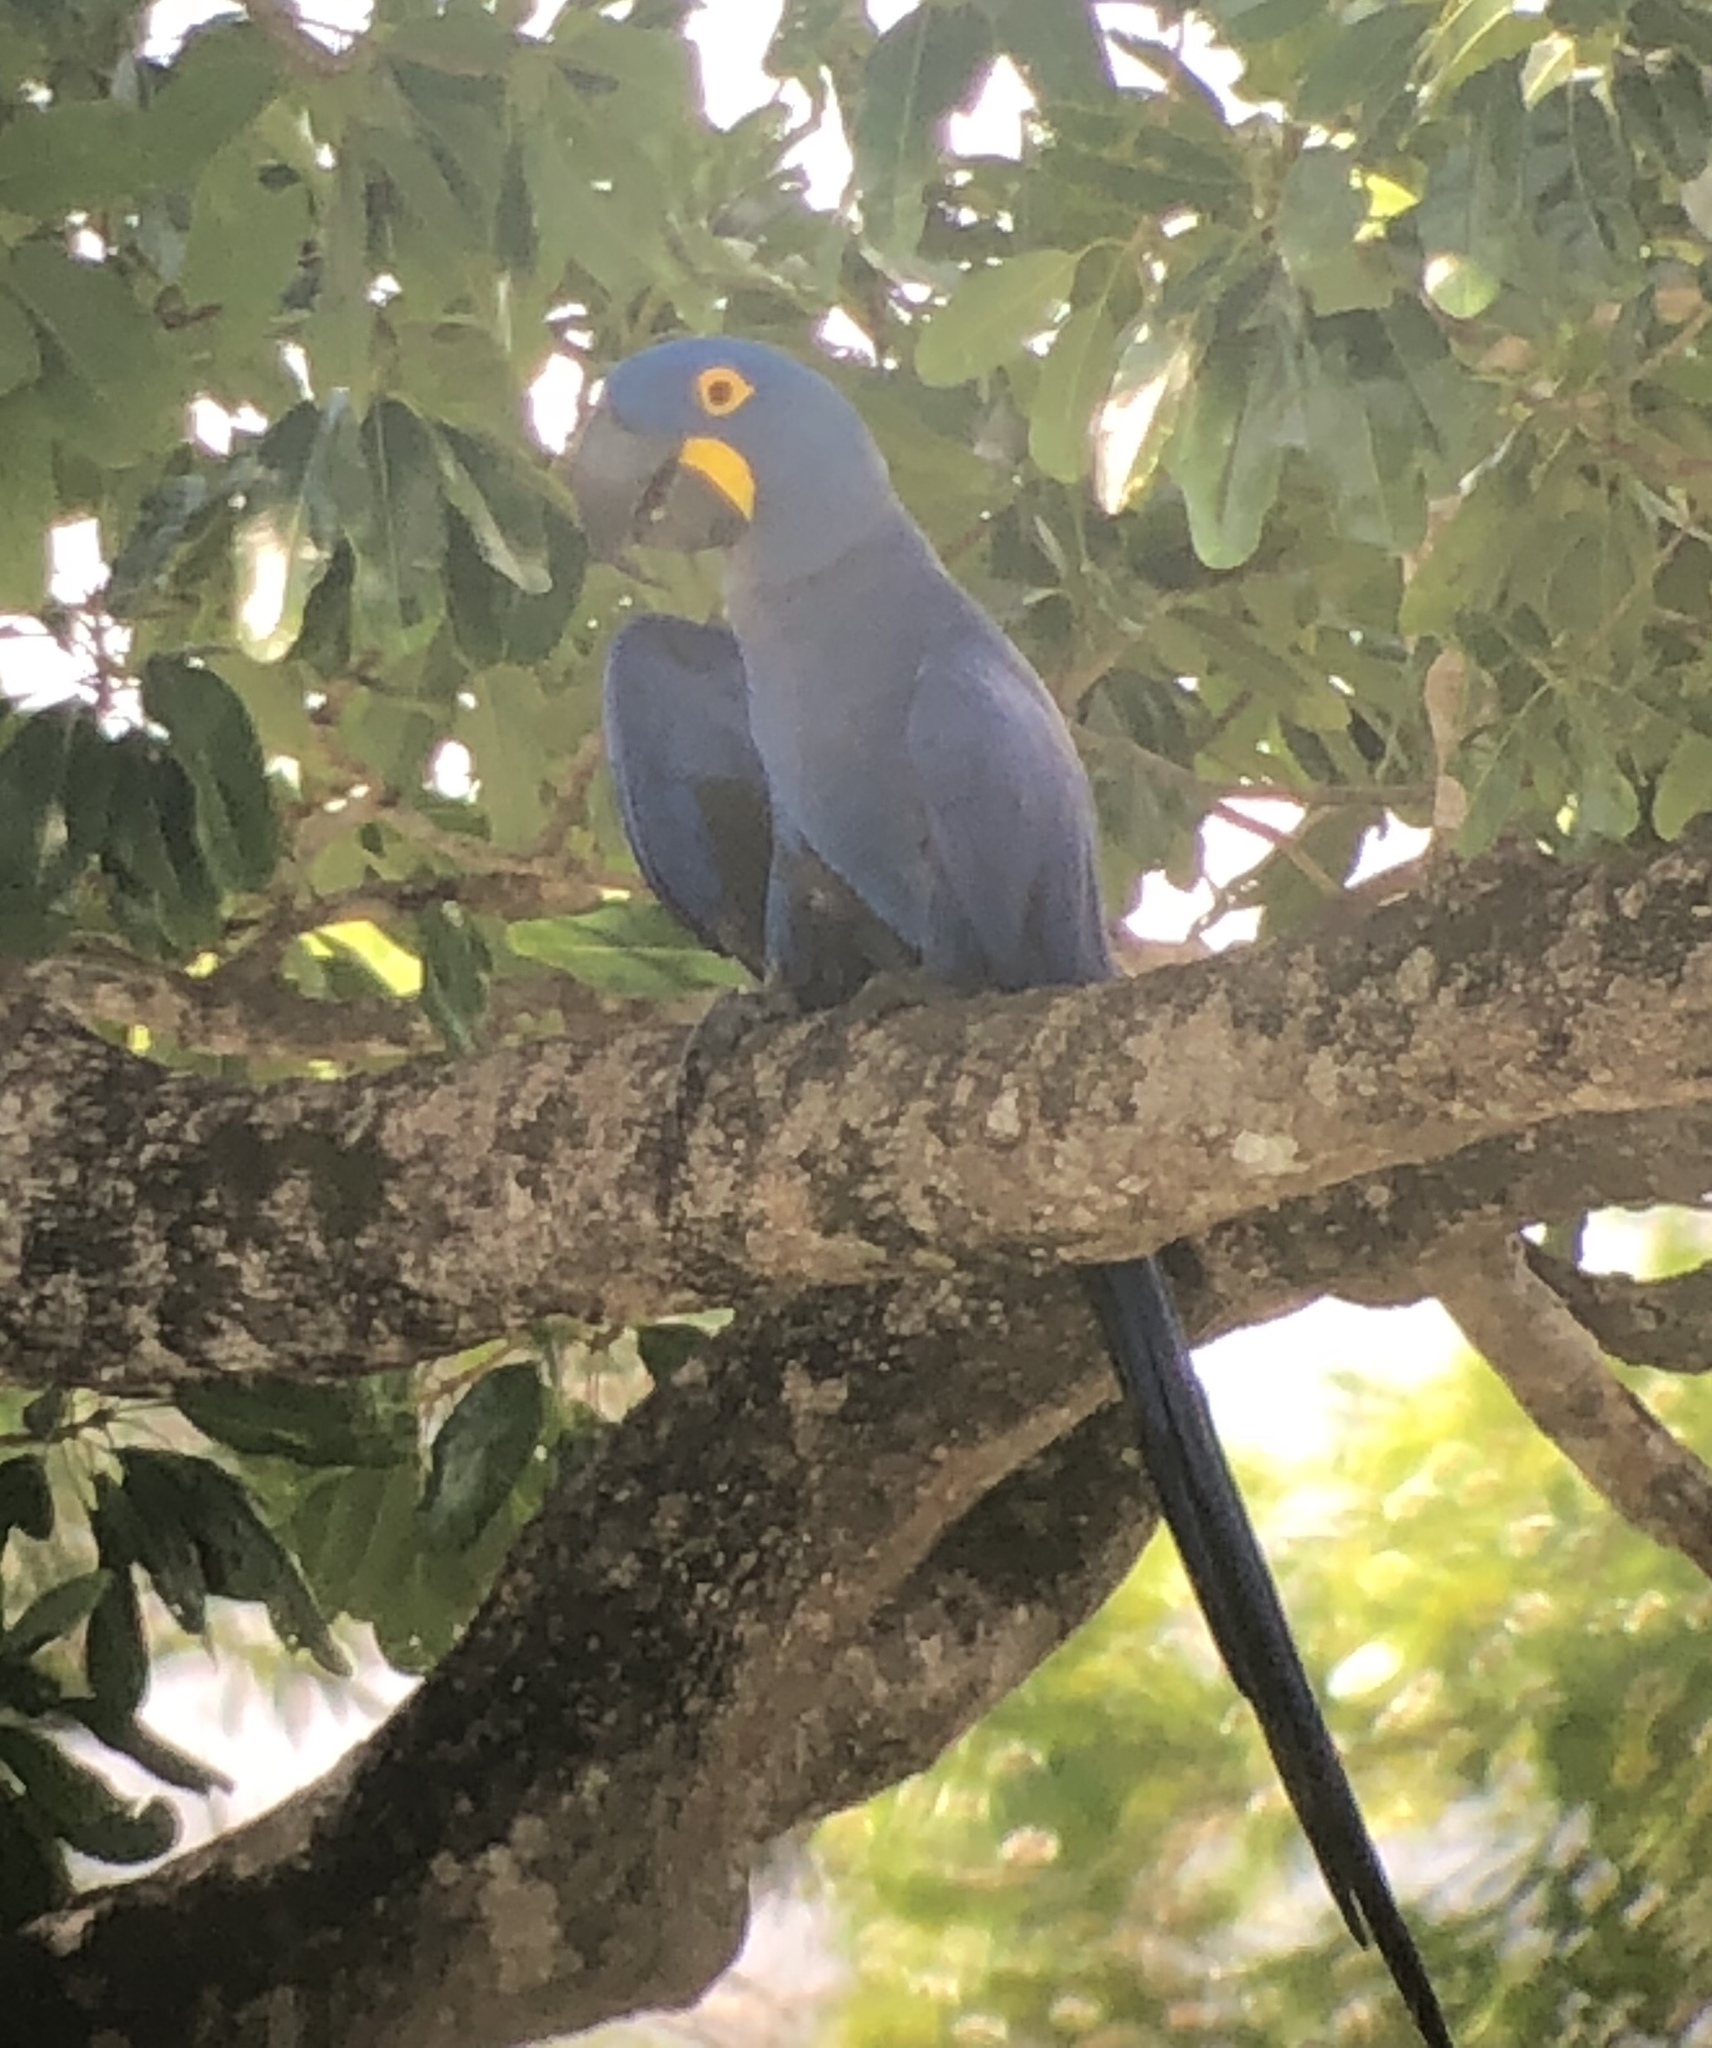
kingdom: Animalia
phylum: Chordata
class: Aves
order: Psittaciformes
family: Psittacidae
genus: Anodorhynchus
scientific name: Anodorhynchus hyacinthinus
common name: Hyacinth macaw
